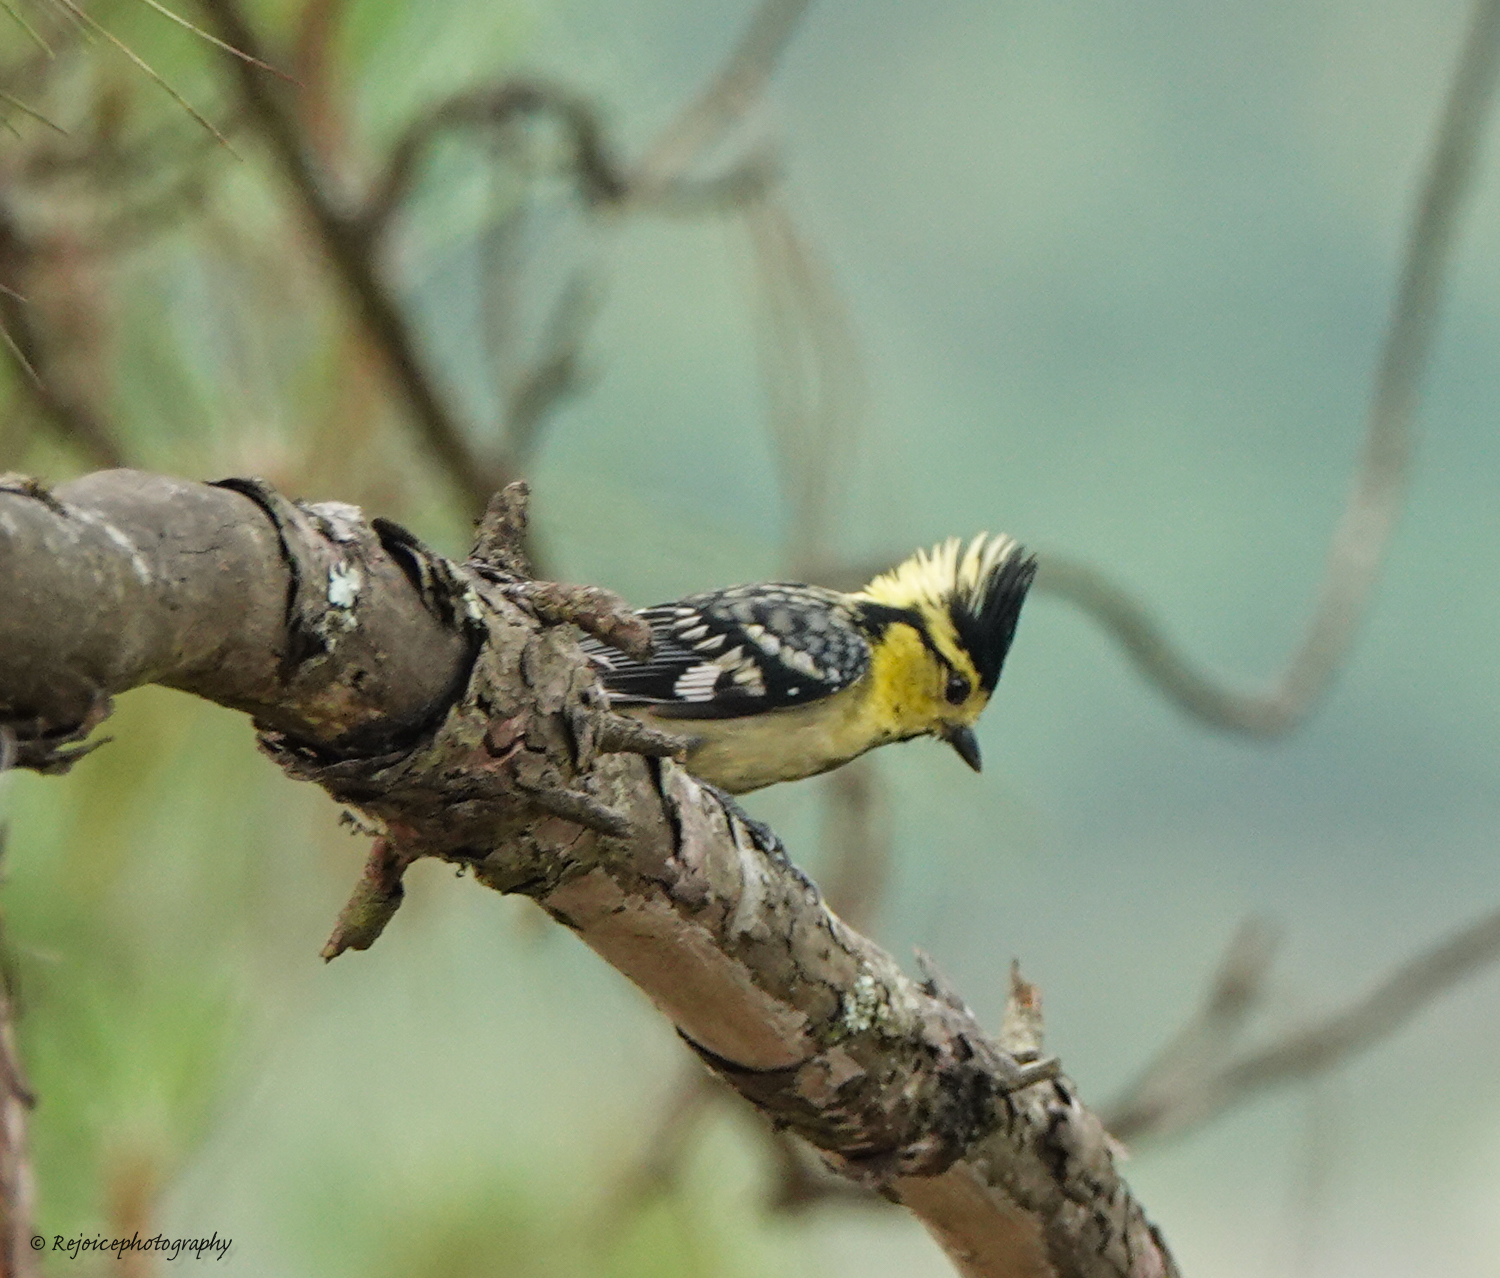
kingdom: Animalia
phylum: Chordata
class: Aves
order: Passeriformes
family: Paridae
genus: Parus
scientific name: Parus spilonotus
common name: Yellow-cheeked tit
